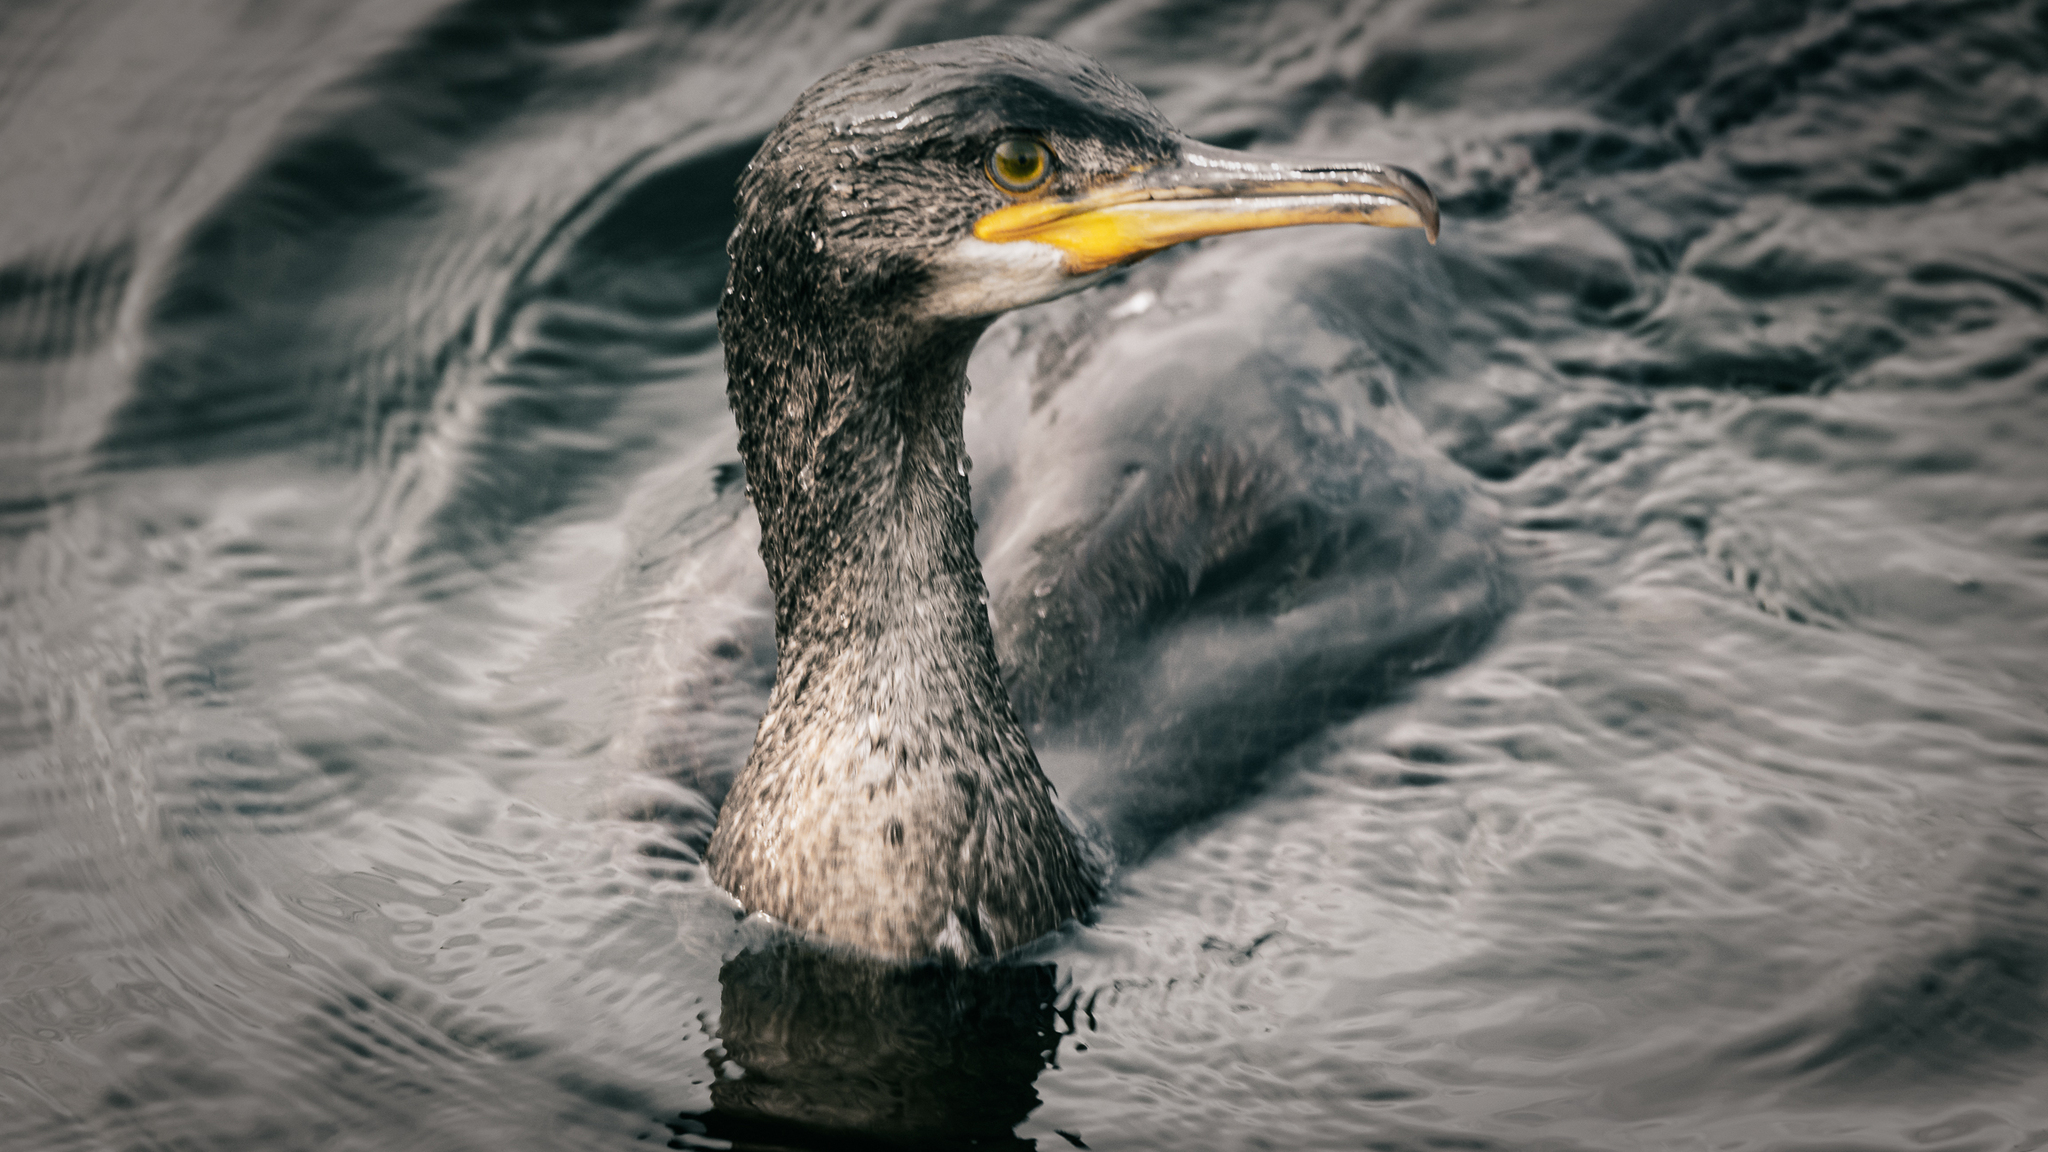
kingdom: Animalia
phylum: Chordata
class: Aves
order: Suliformes
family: Phalacrocoracidae
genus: Phalacrocorax
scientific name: Phalacrocorax aristotelis
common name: European shag
